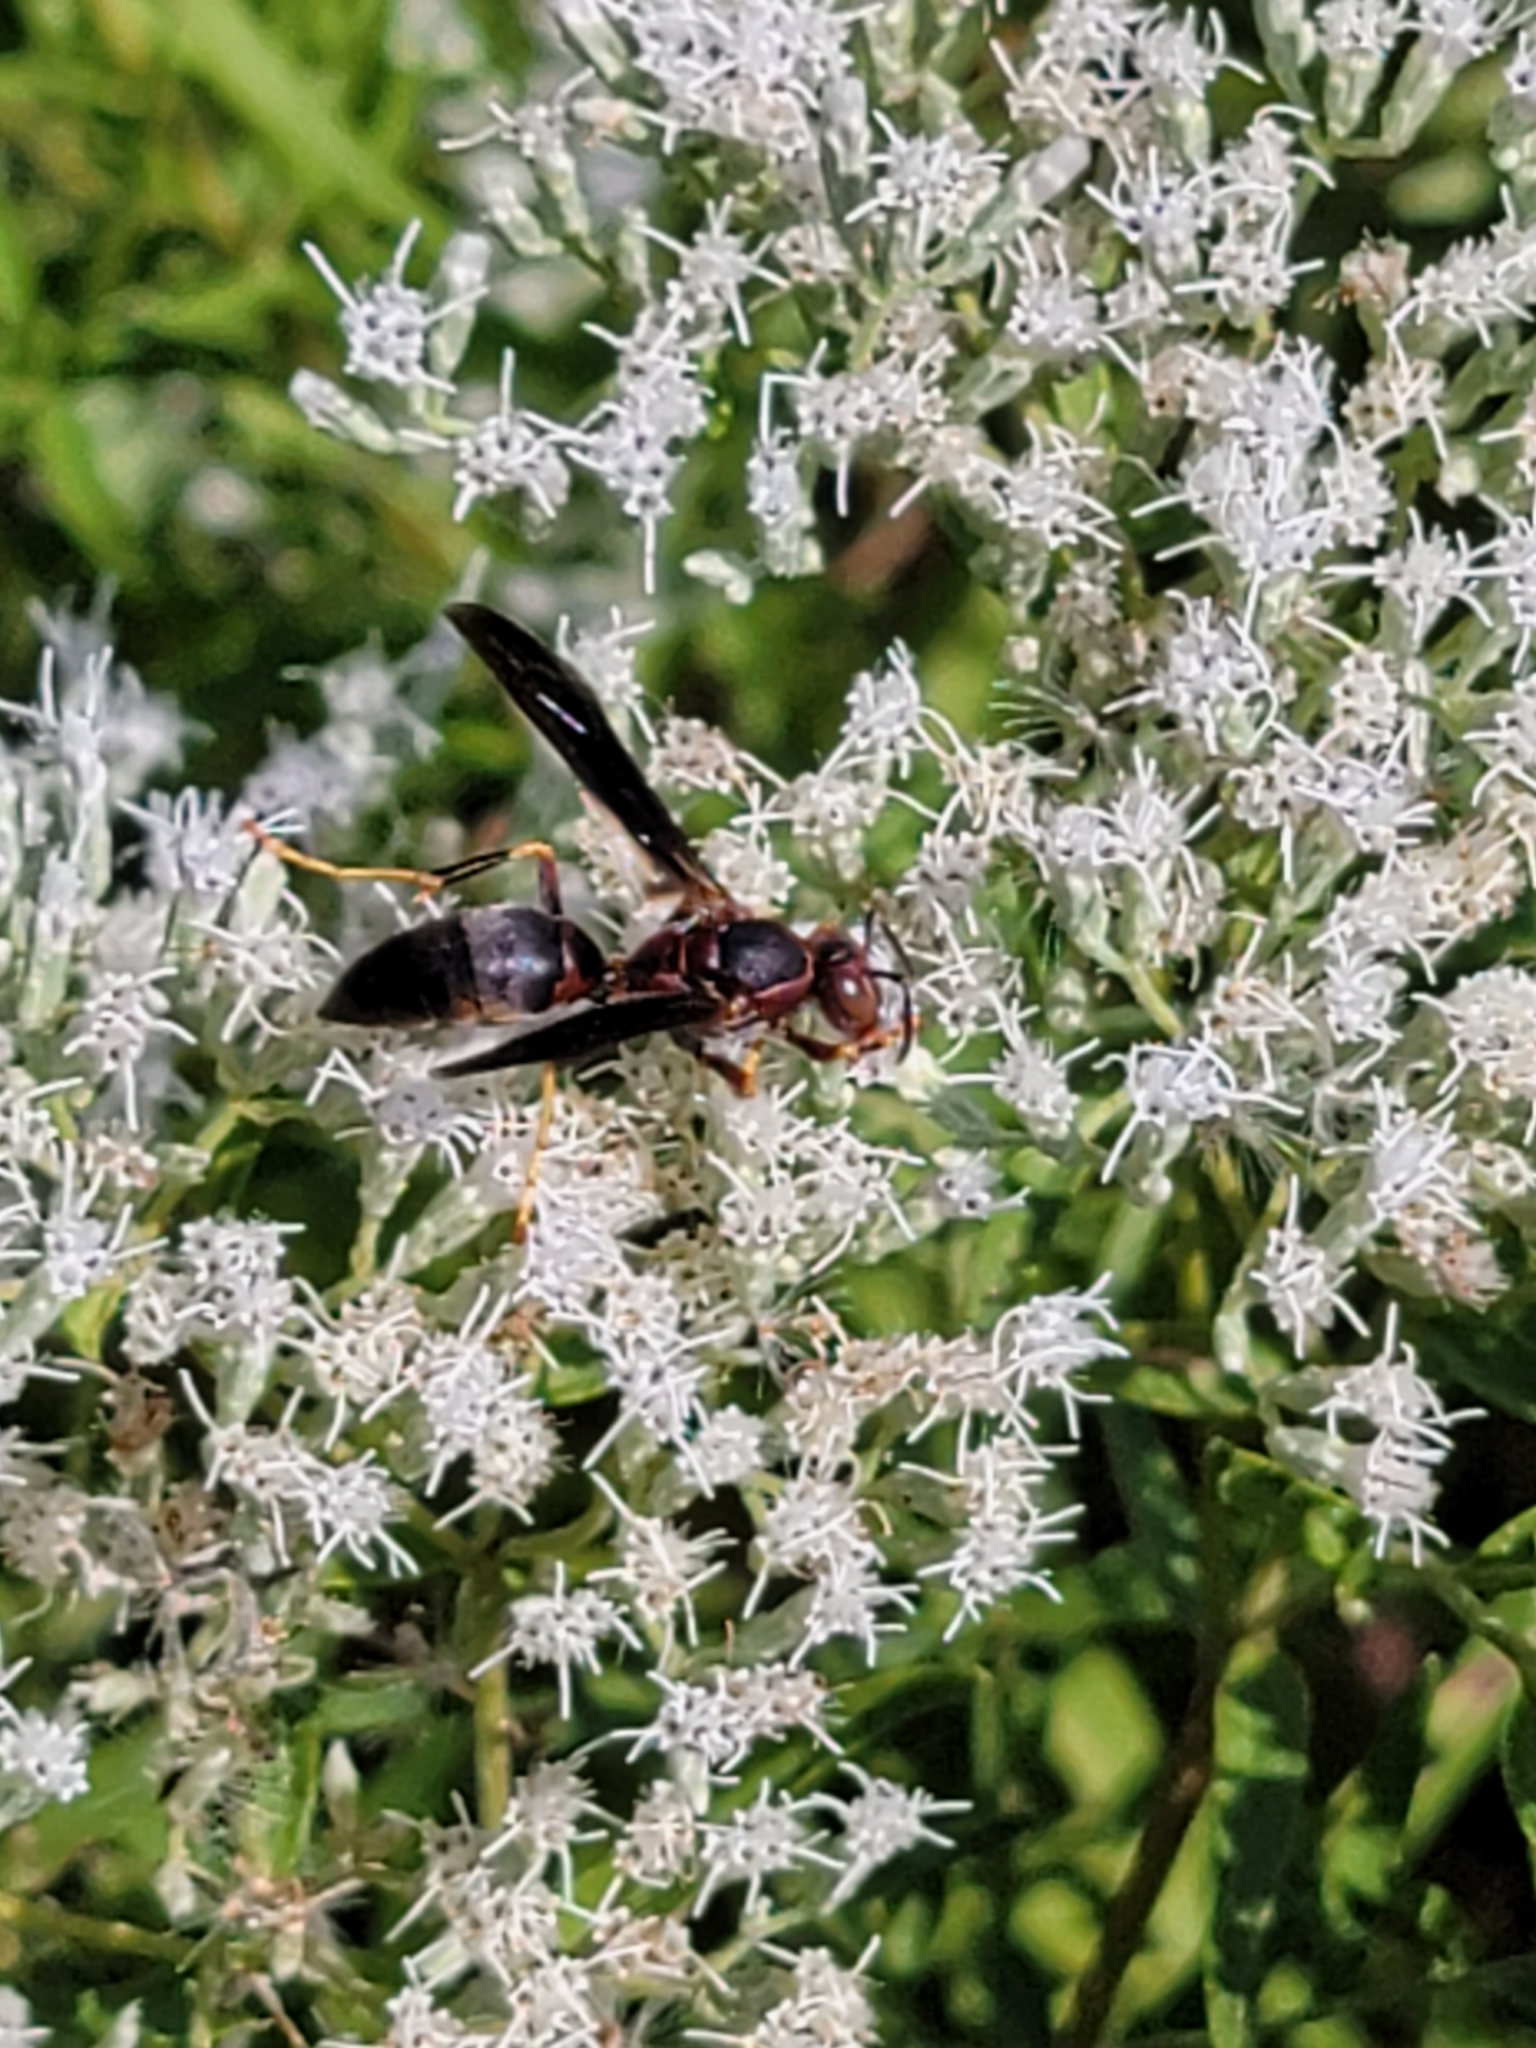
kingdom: Animalia
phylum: Arthropoda
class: Insecta
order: Hymenoptera
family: Eumenidae
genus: Polistes
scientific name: Polistes metricus
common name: Metric paper wasp
